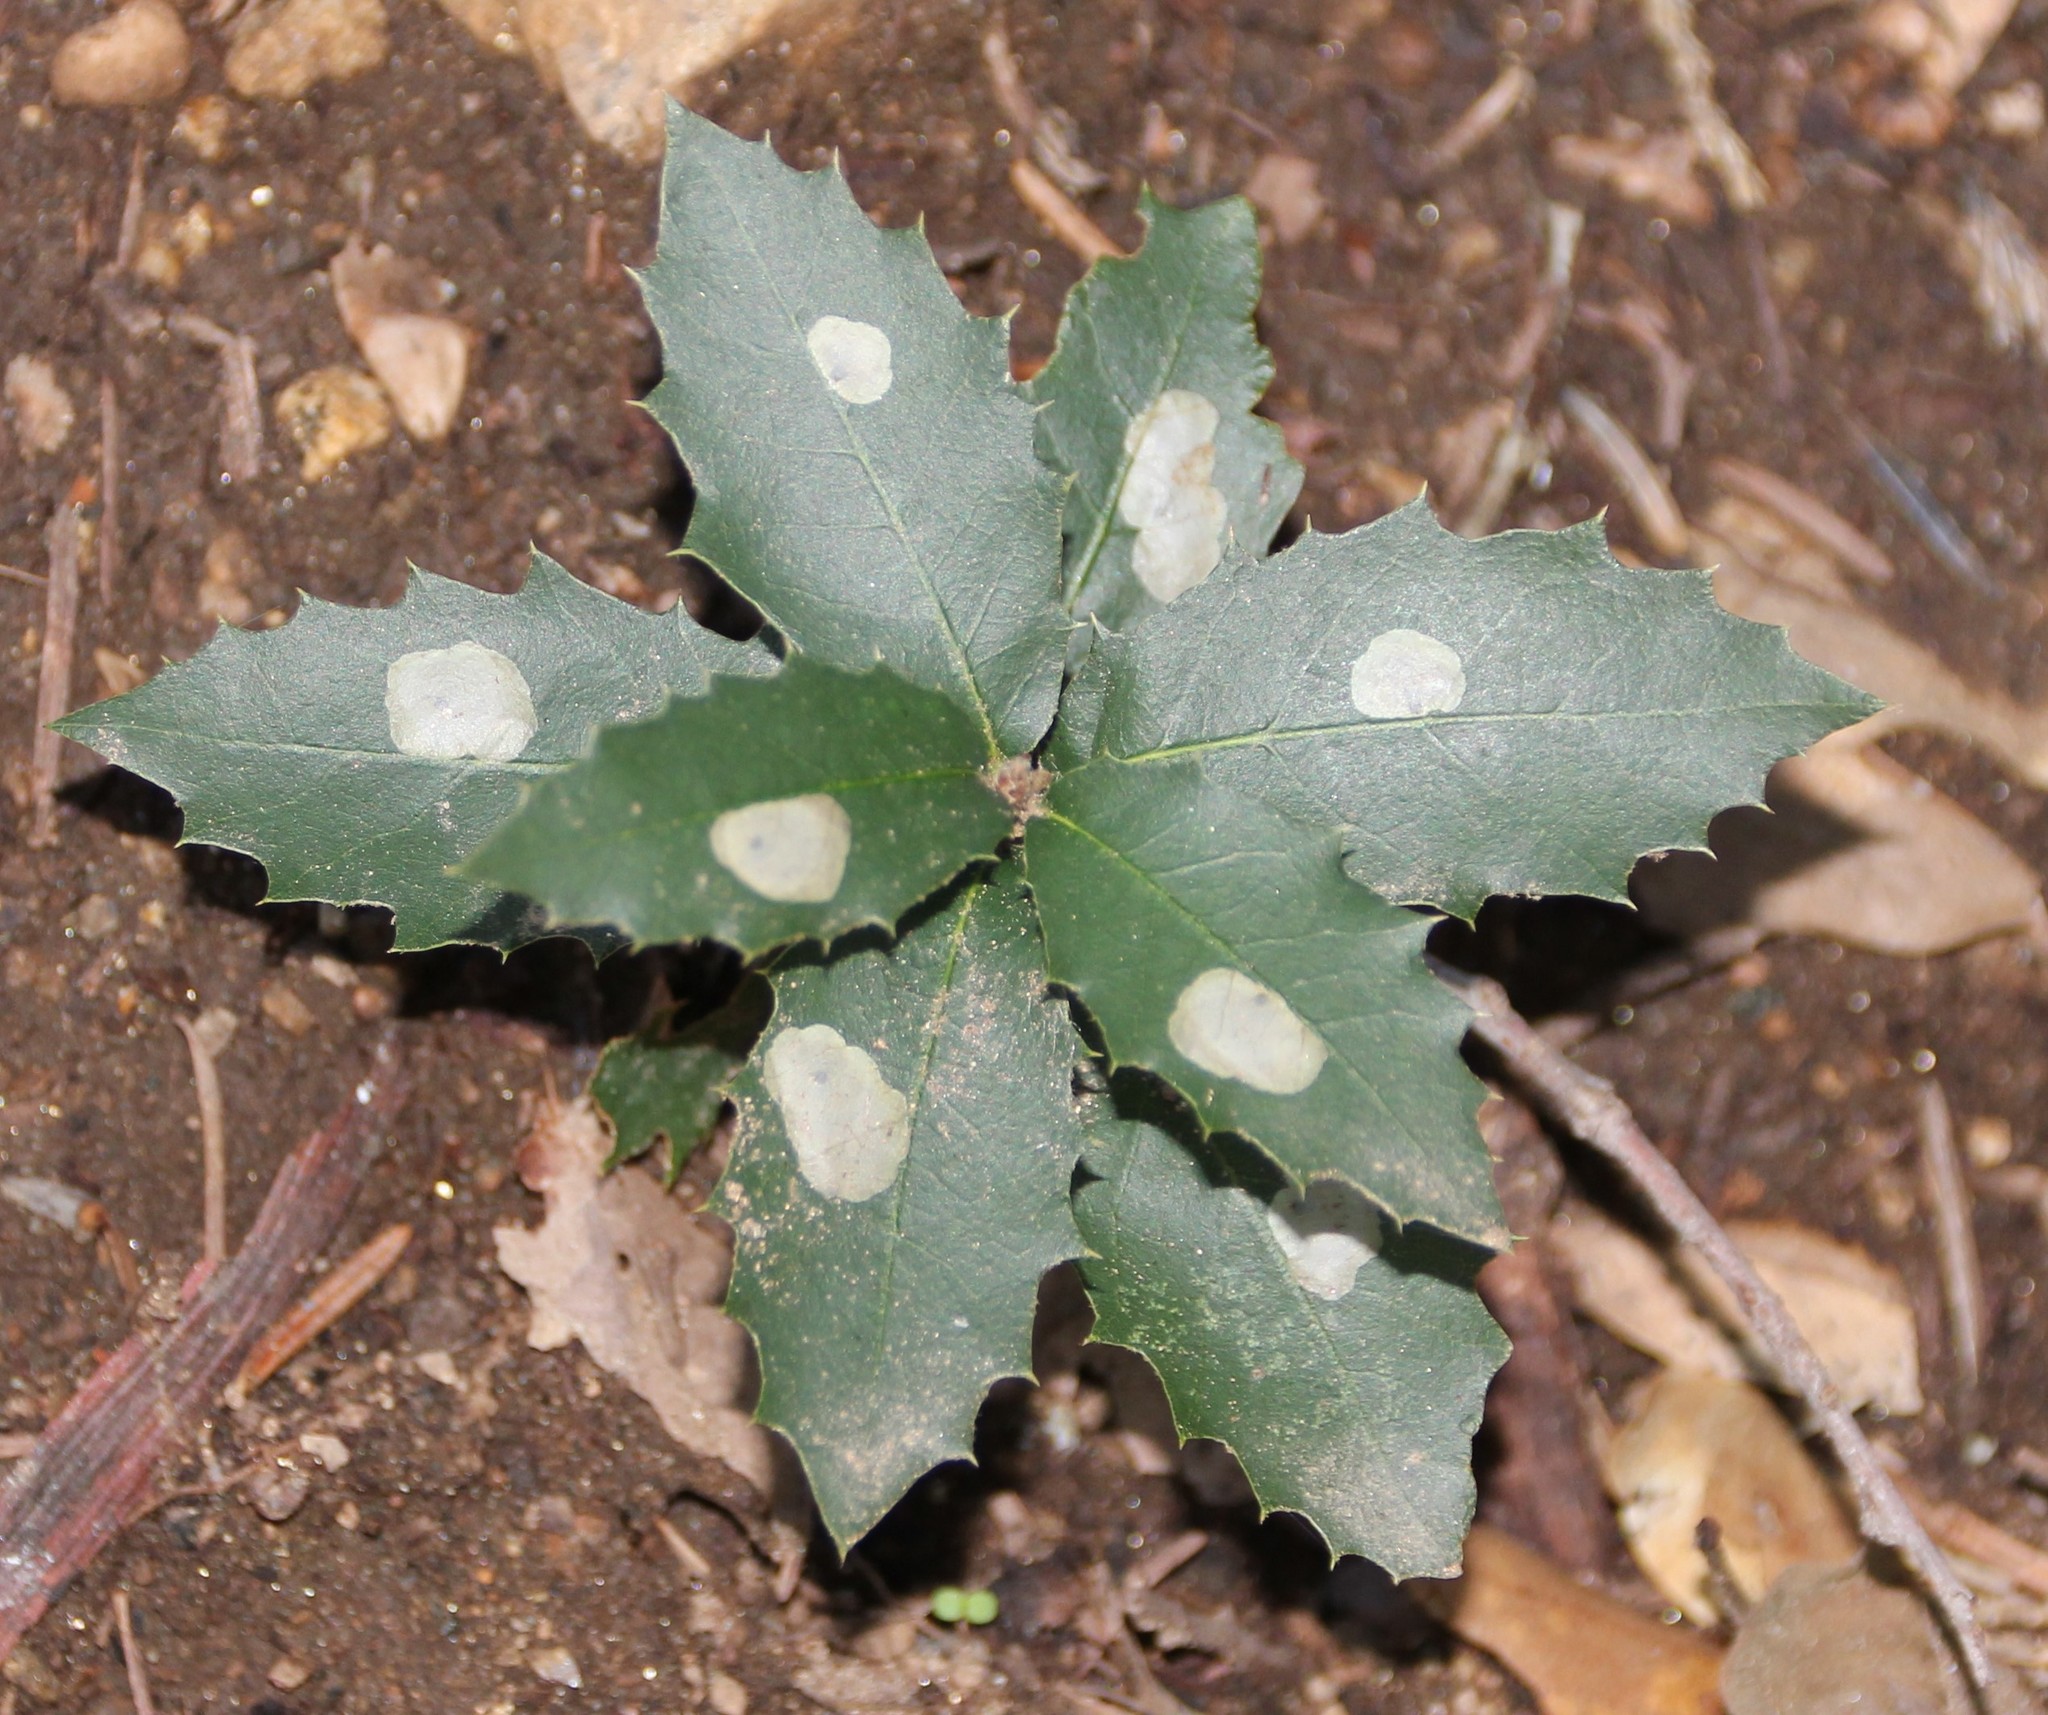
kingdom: Plantae
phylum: Tracheophyta
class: Magnoliopsida
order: Fagales
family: Fagaceae
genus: Quercus
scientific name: Quercus
